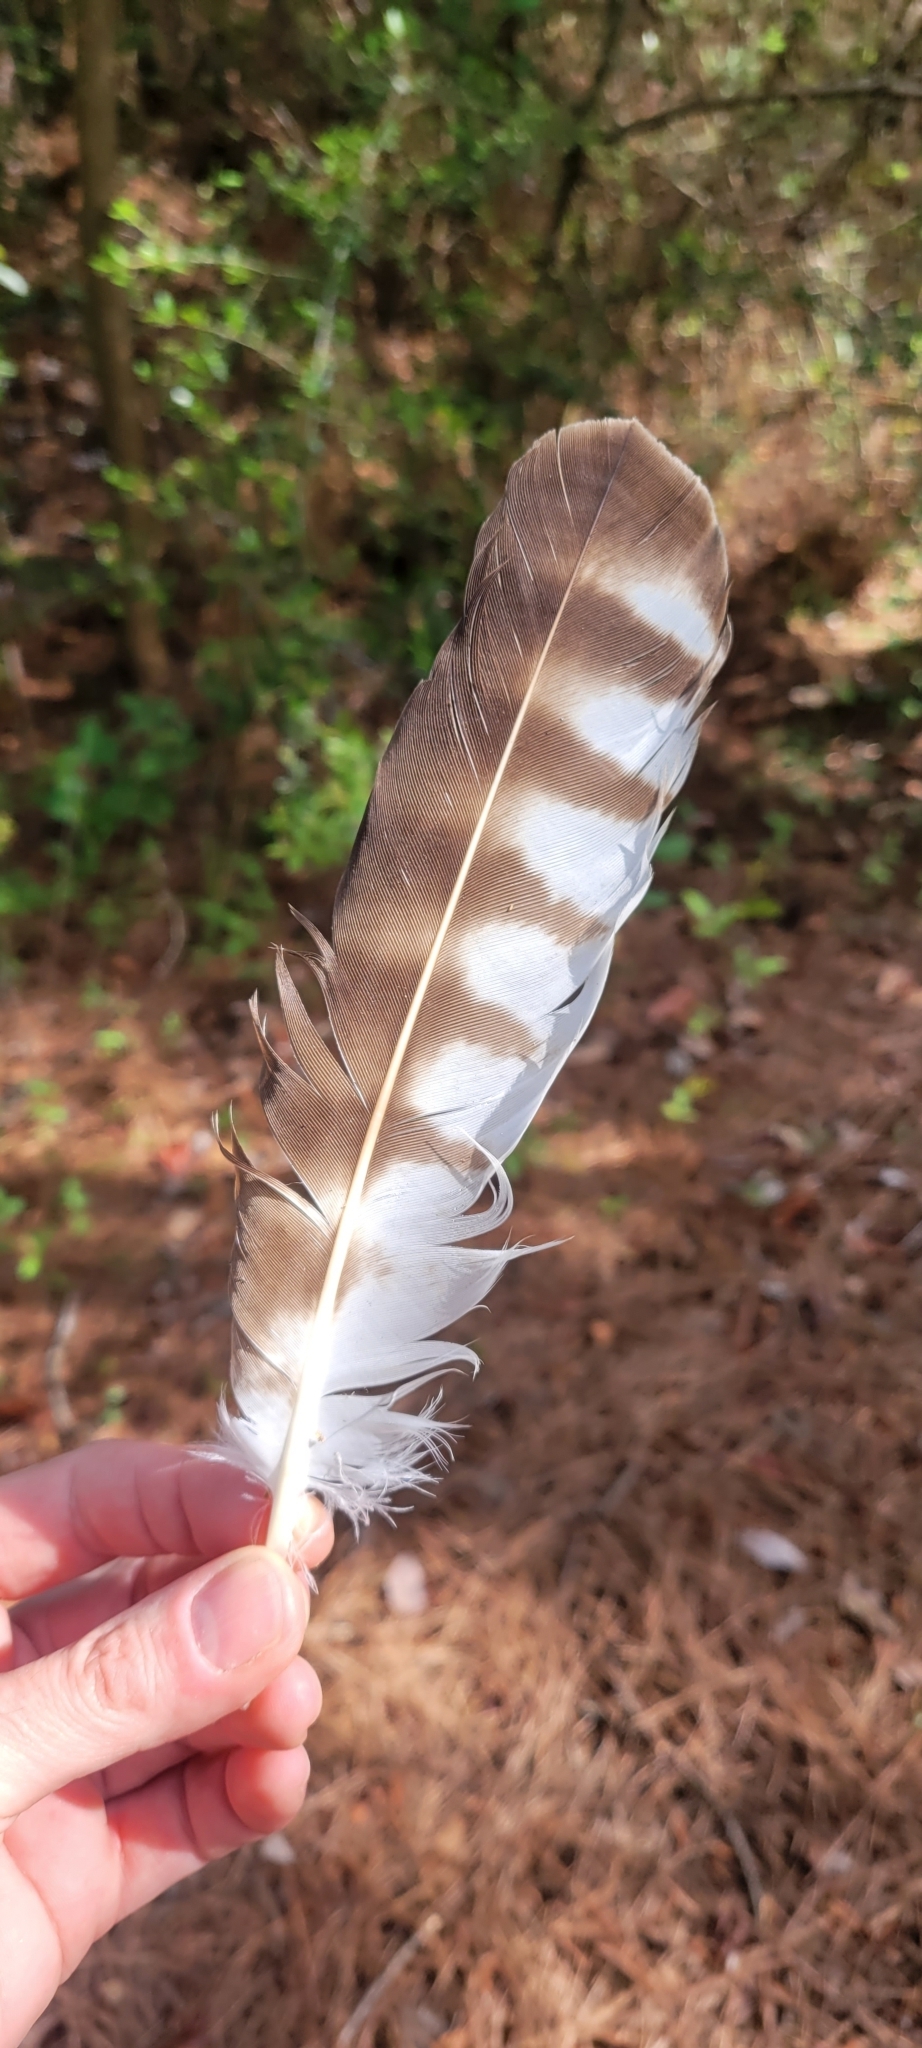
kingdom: Animalia
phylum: Chordata
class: Aves
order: Accipitriformes
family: Pandionidae
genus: Pandion
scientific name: Pandion haliaetus
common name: Osprey
